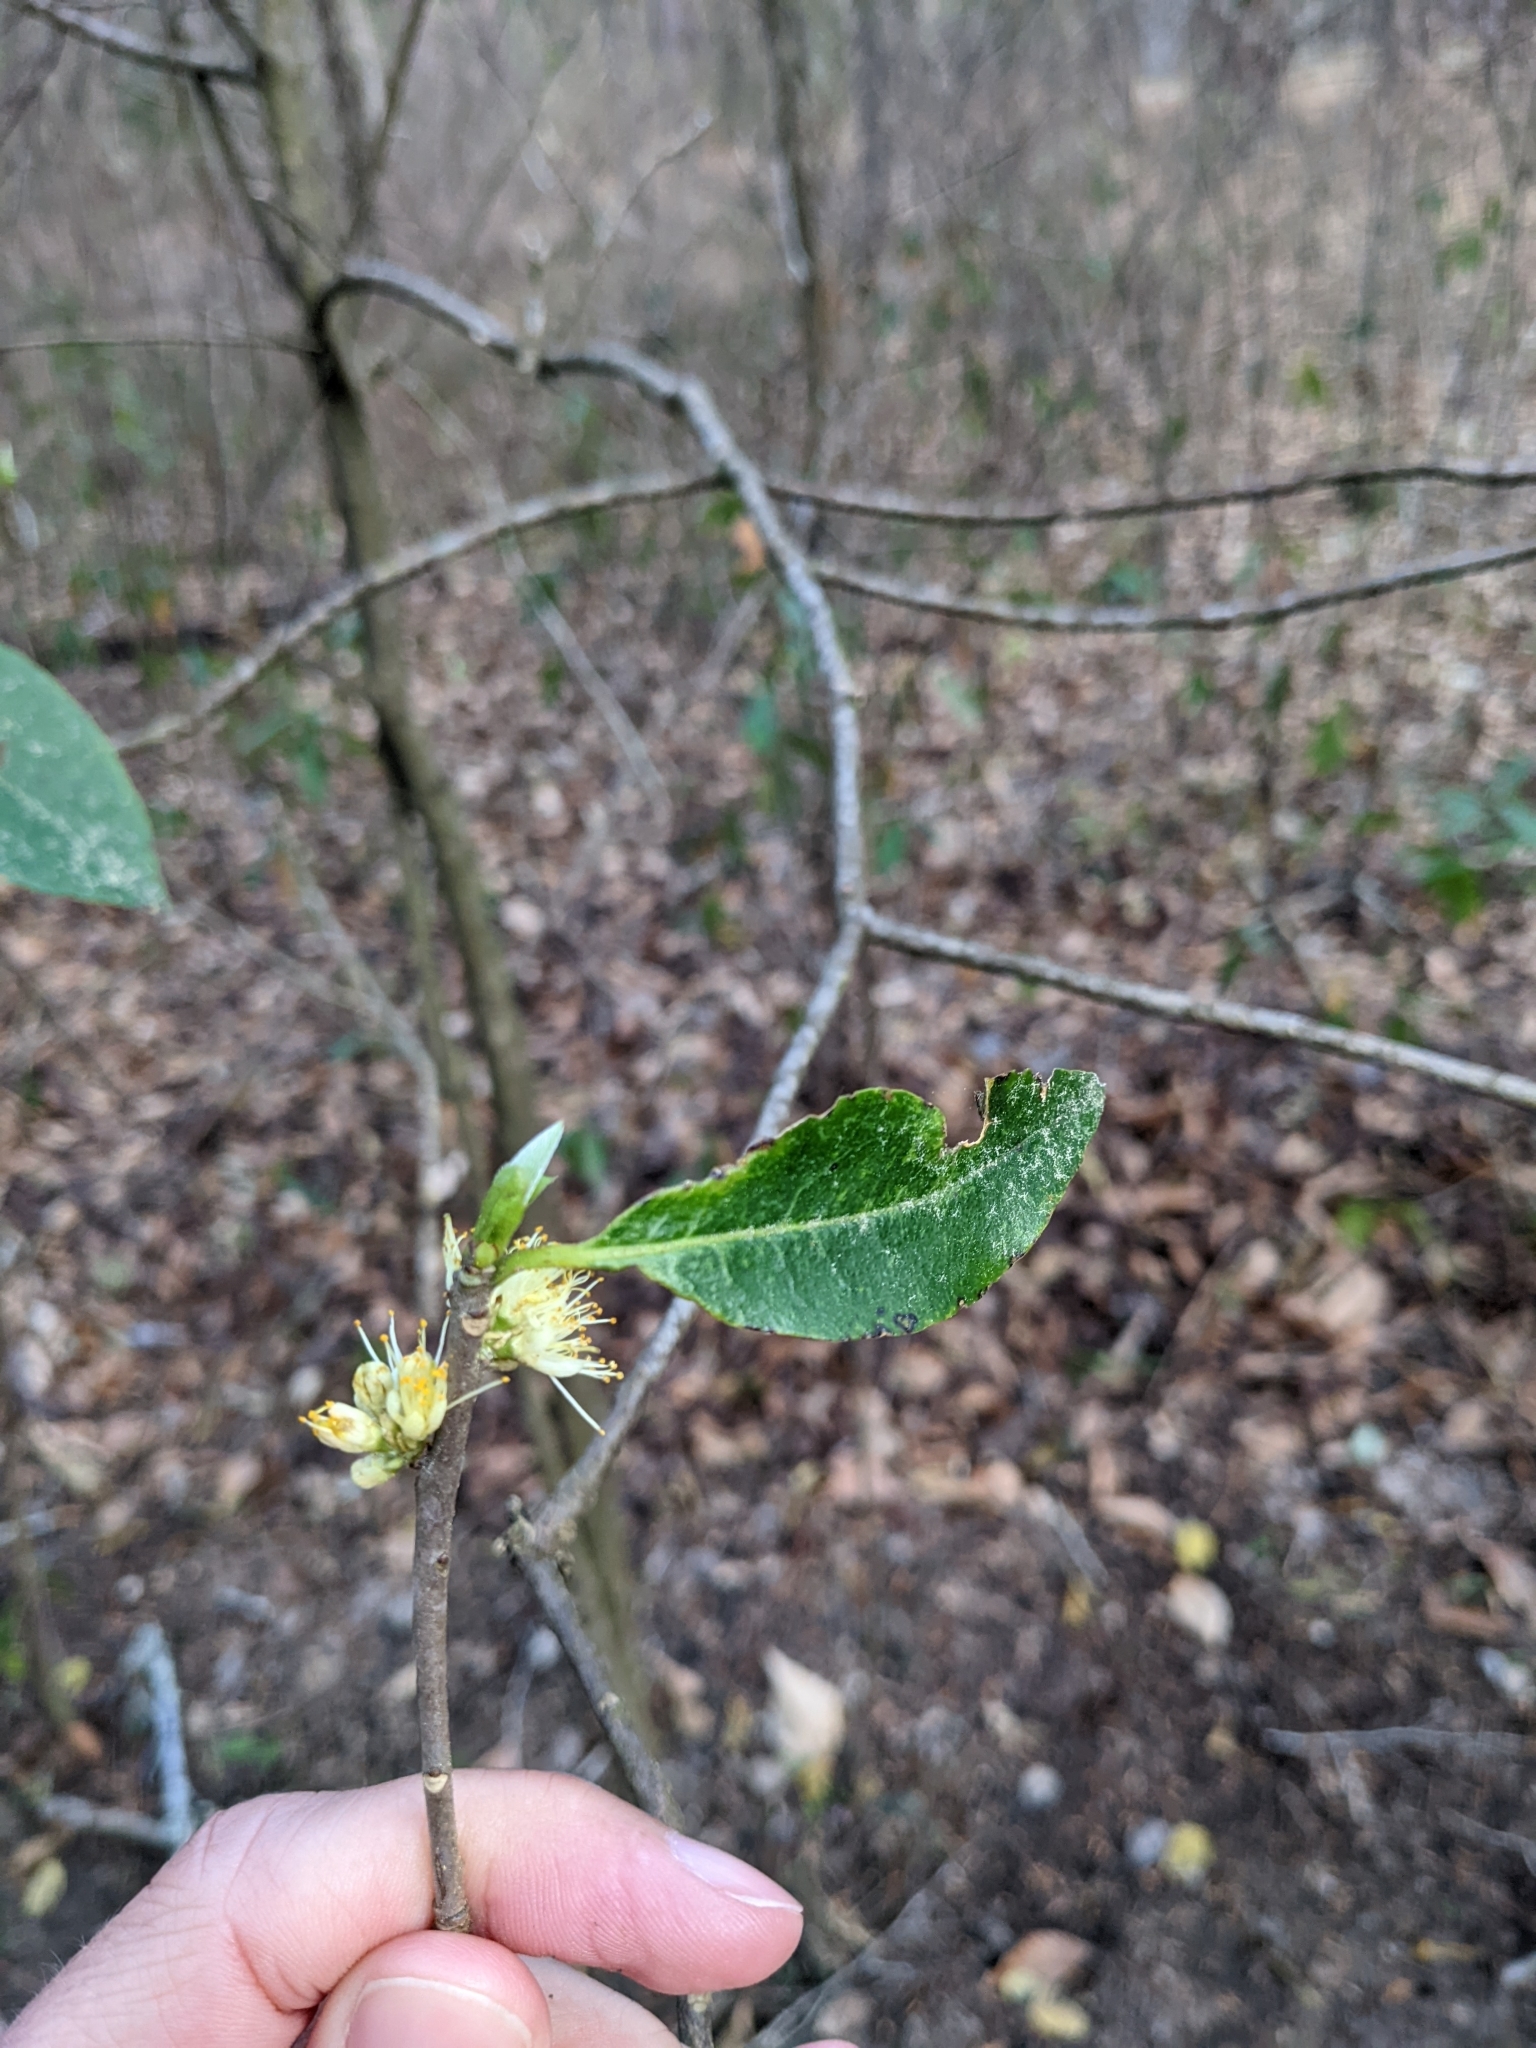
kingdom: Fungi
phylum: Basidiomycota
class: Exobasidiomycetes
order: Exobasidiales
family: Exobasidiaceae
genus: Exobasidium
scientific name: Exobasidium symploci
